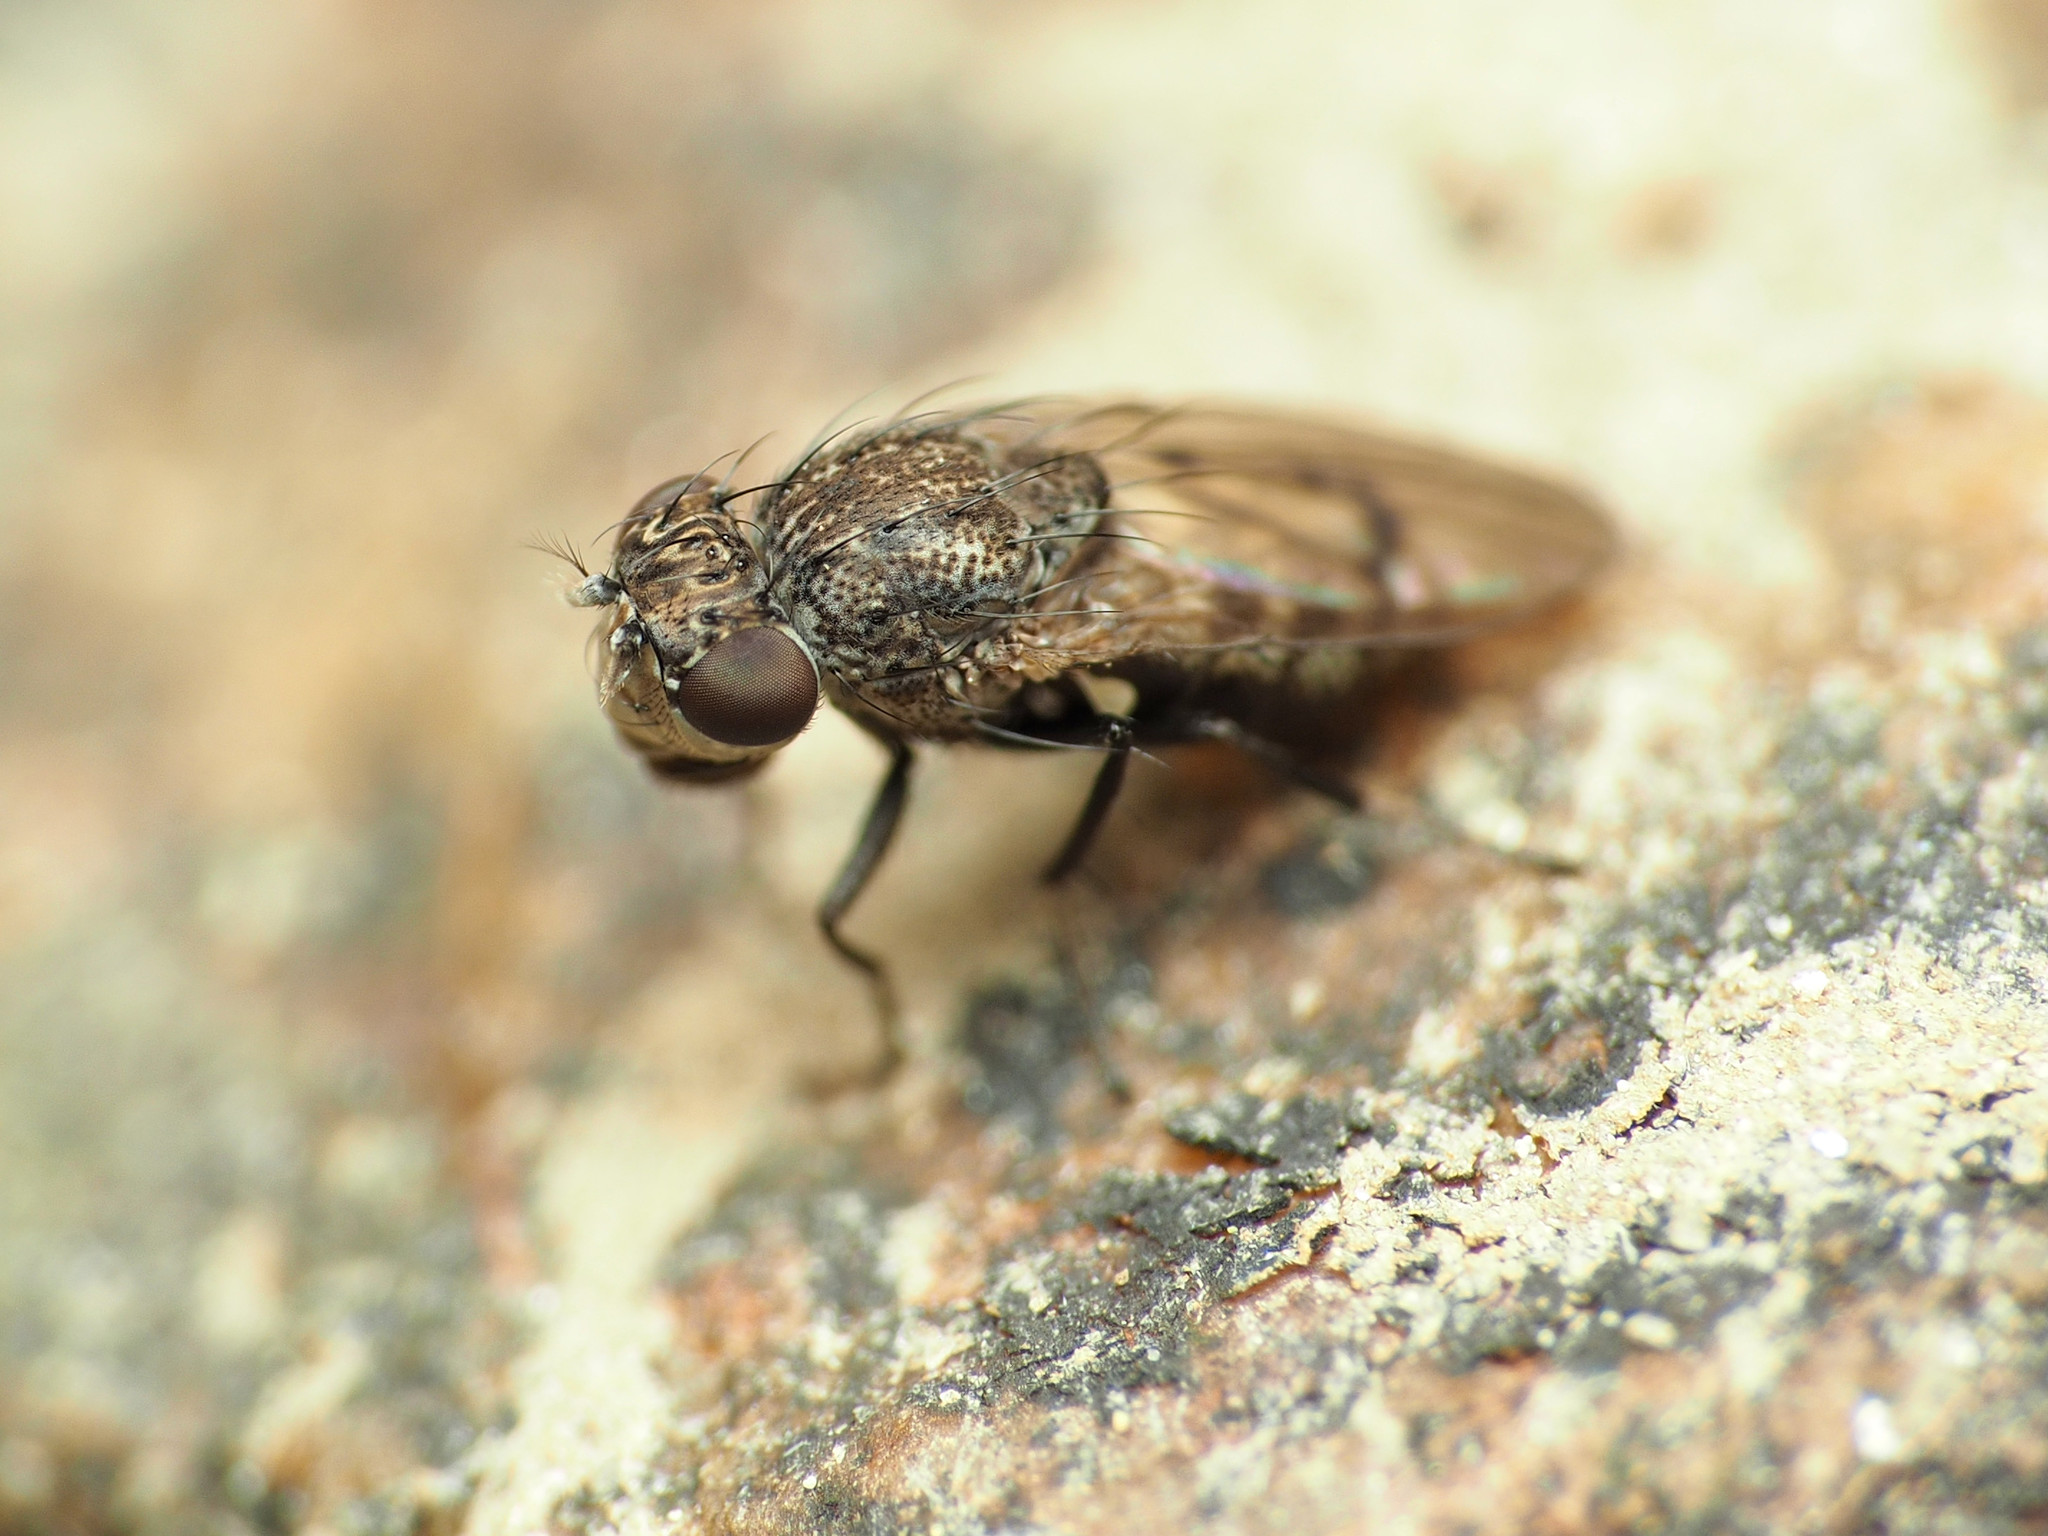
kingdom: Animalia
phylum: Arthropoda
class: Insecta
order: Diptera
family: Ephydridae
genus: Paralimna
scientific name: Paralimna punctipennis
